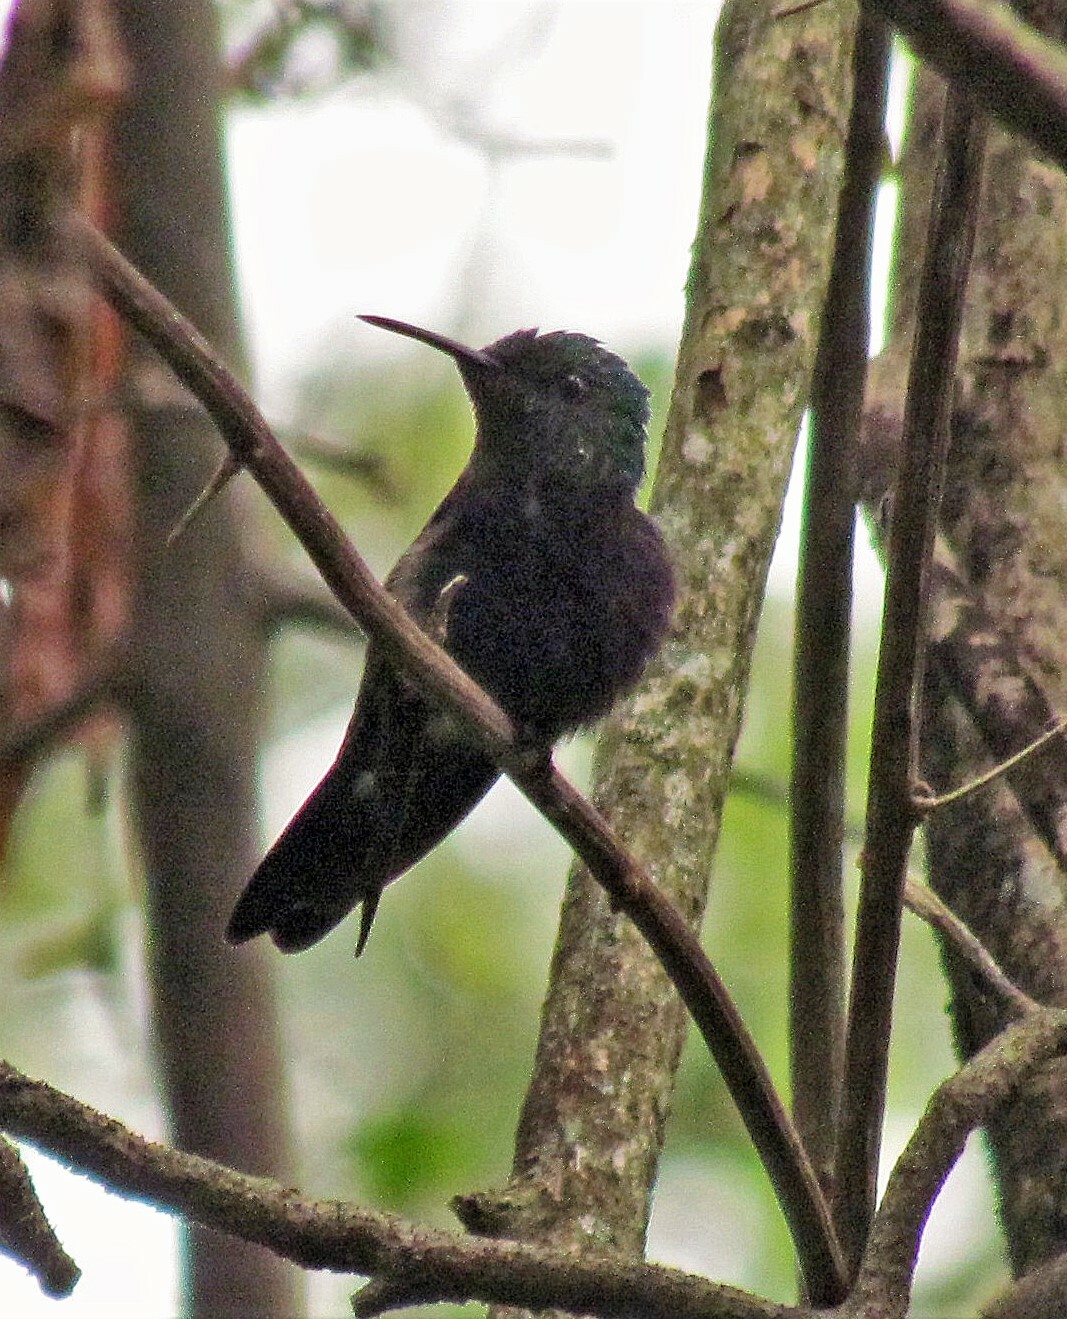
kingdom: Animalia
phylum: Chordata
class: Aves
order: Apodiformes
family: Trochilidae
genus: Thalurania
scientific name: Thalurania furcata
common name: Fork-tailed woodnymph
